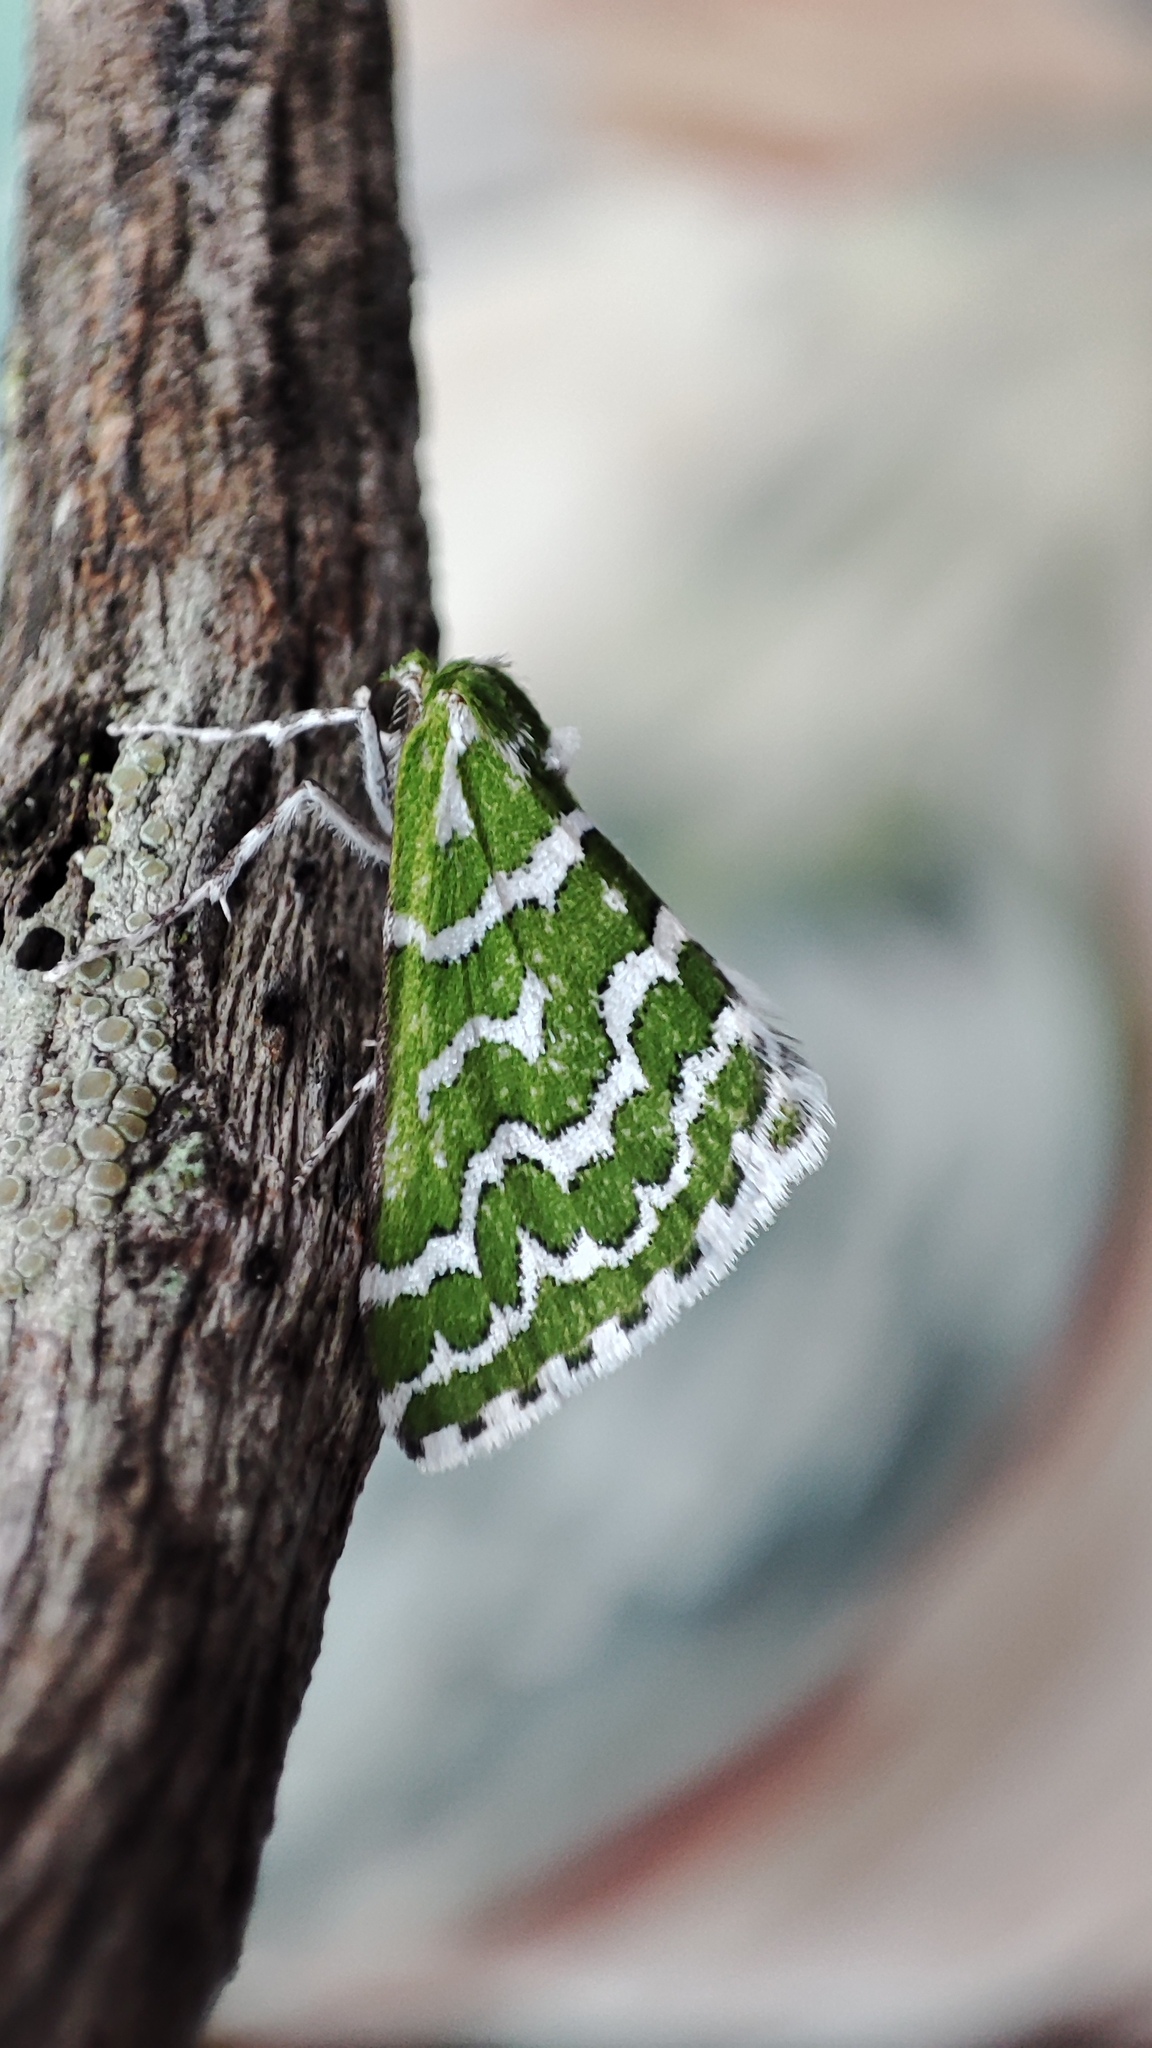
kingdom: Animalia
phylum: Arthropoda
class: Insecta
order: Lepidoptera
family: Geometridae
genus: Argyrographa
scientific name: Argyrographa moderata
